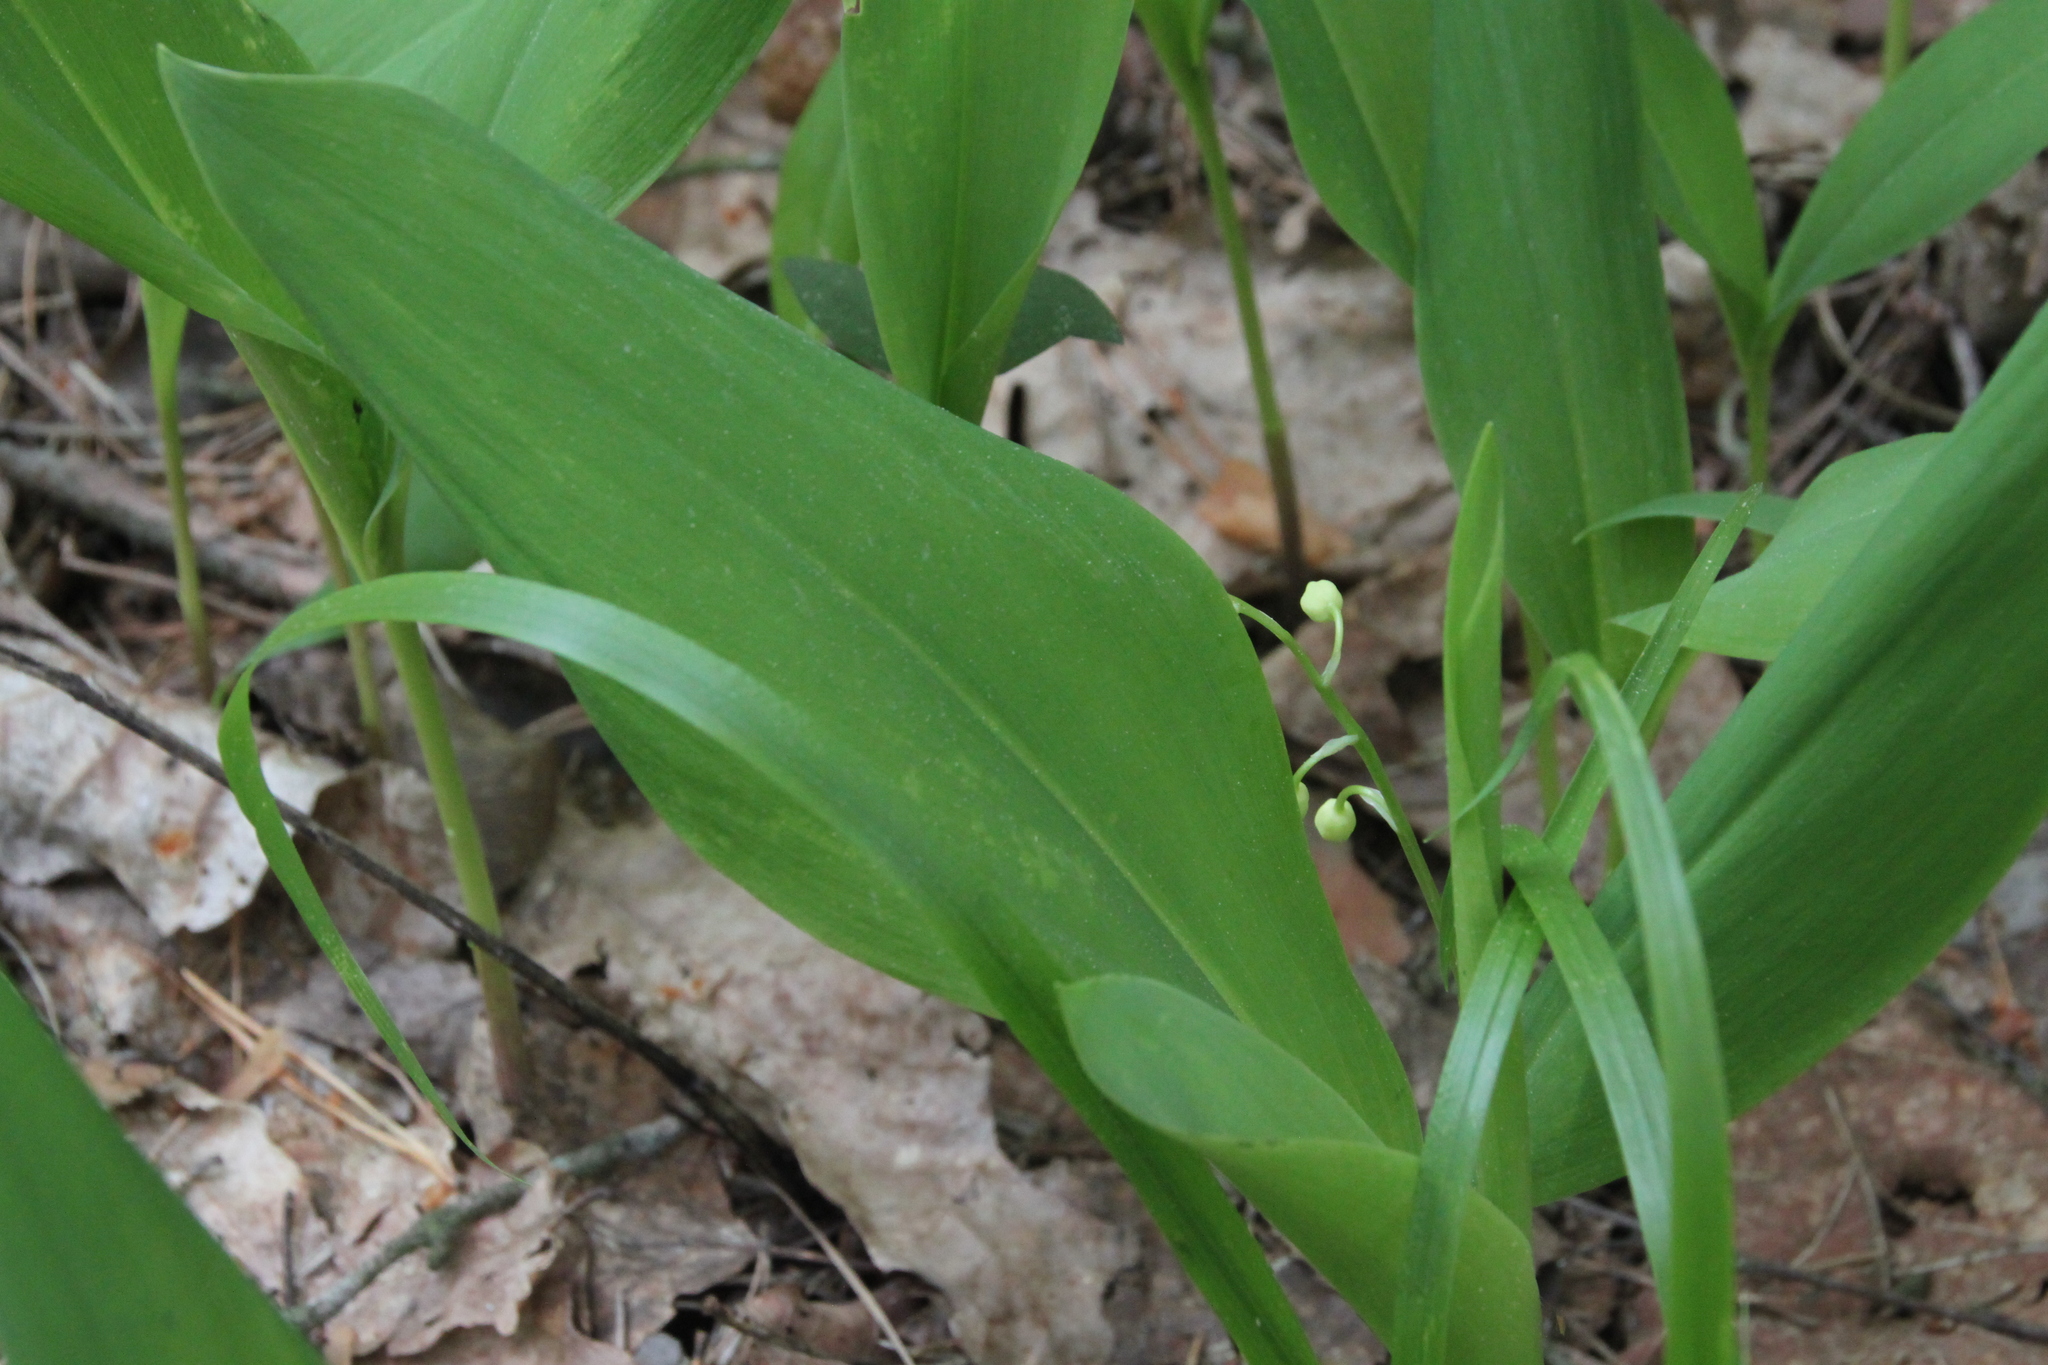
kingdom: Plantae
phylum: Tracheophyta
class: Liliopsida
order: Asparagales
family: Asparagaceae
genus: Convallaria
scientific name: Convallaria majalis
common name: Lily-of-the-valley
